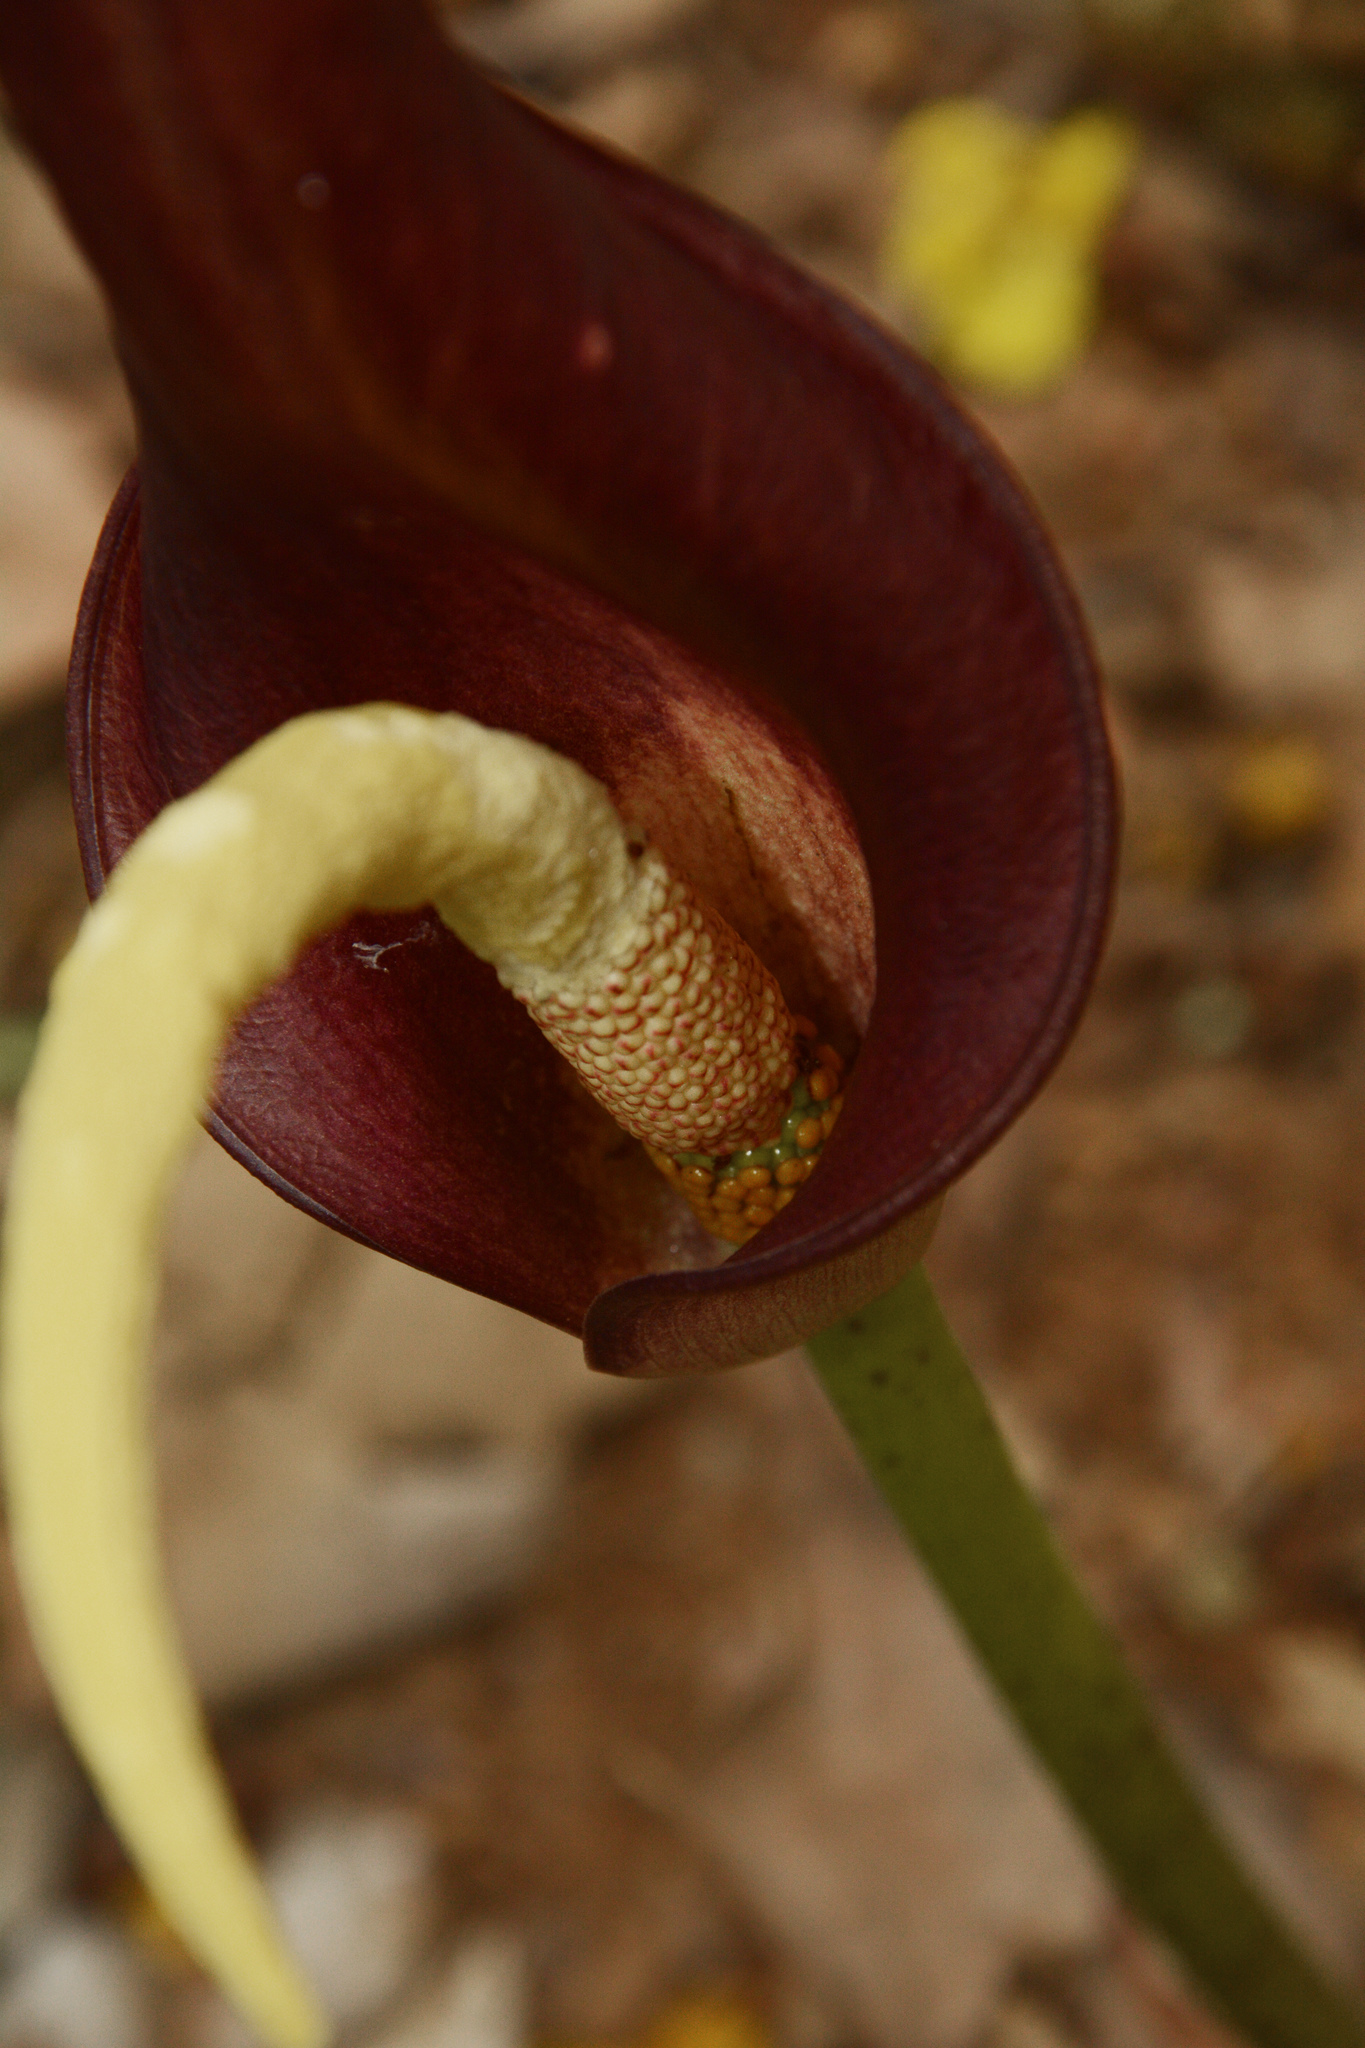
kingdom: Plantae
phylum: Tracheophyta
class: Liliopsida
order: Alismatales
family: Araceae
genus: Amorphophallus
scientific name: Amorphophallus commutatus
